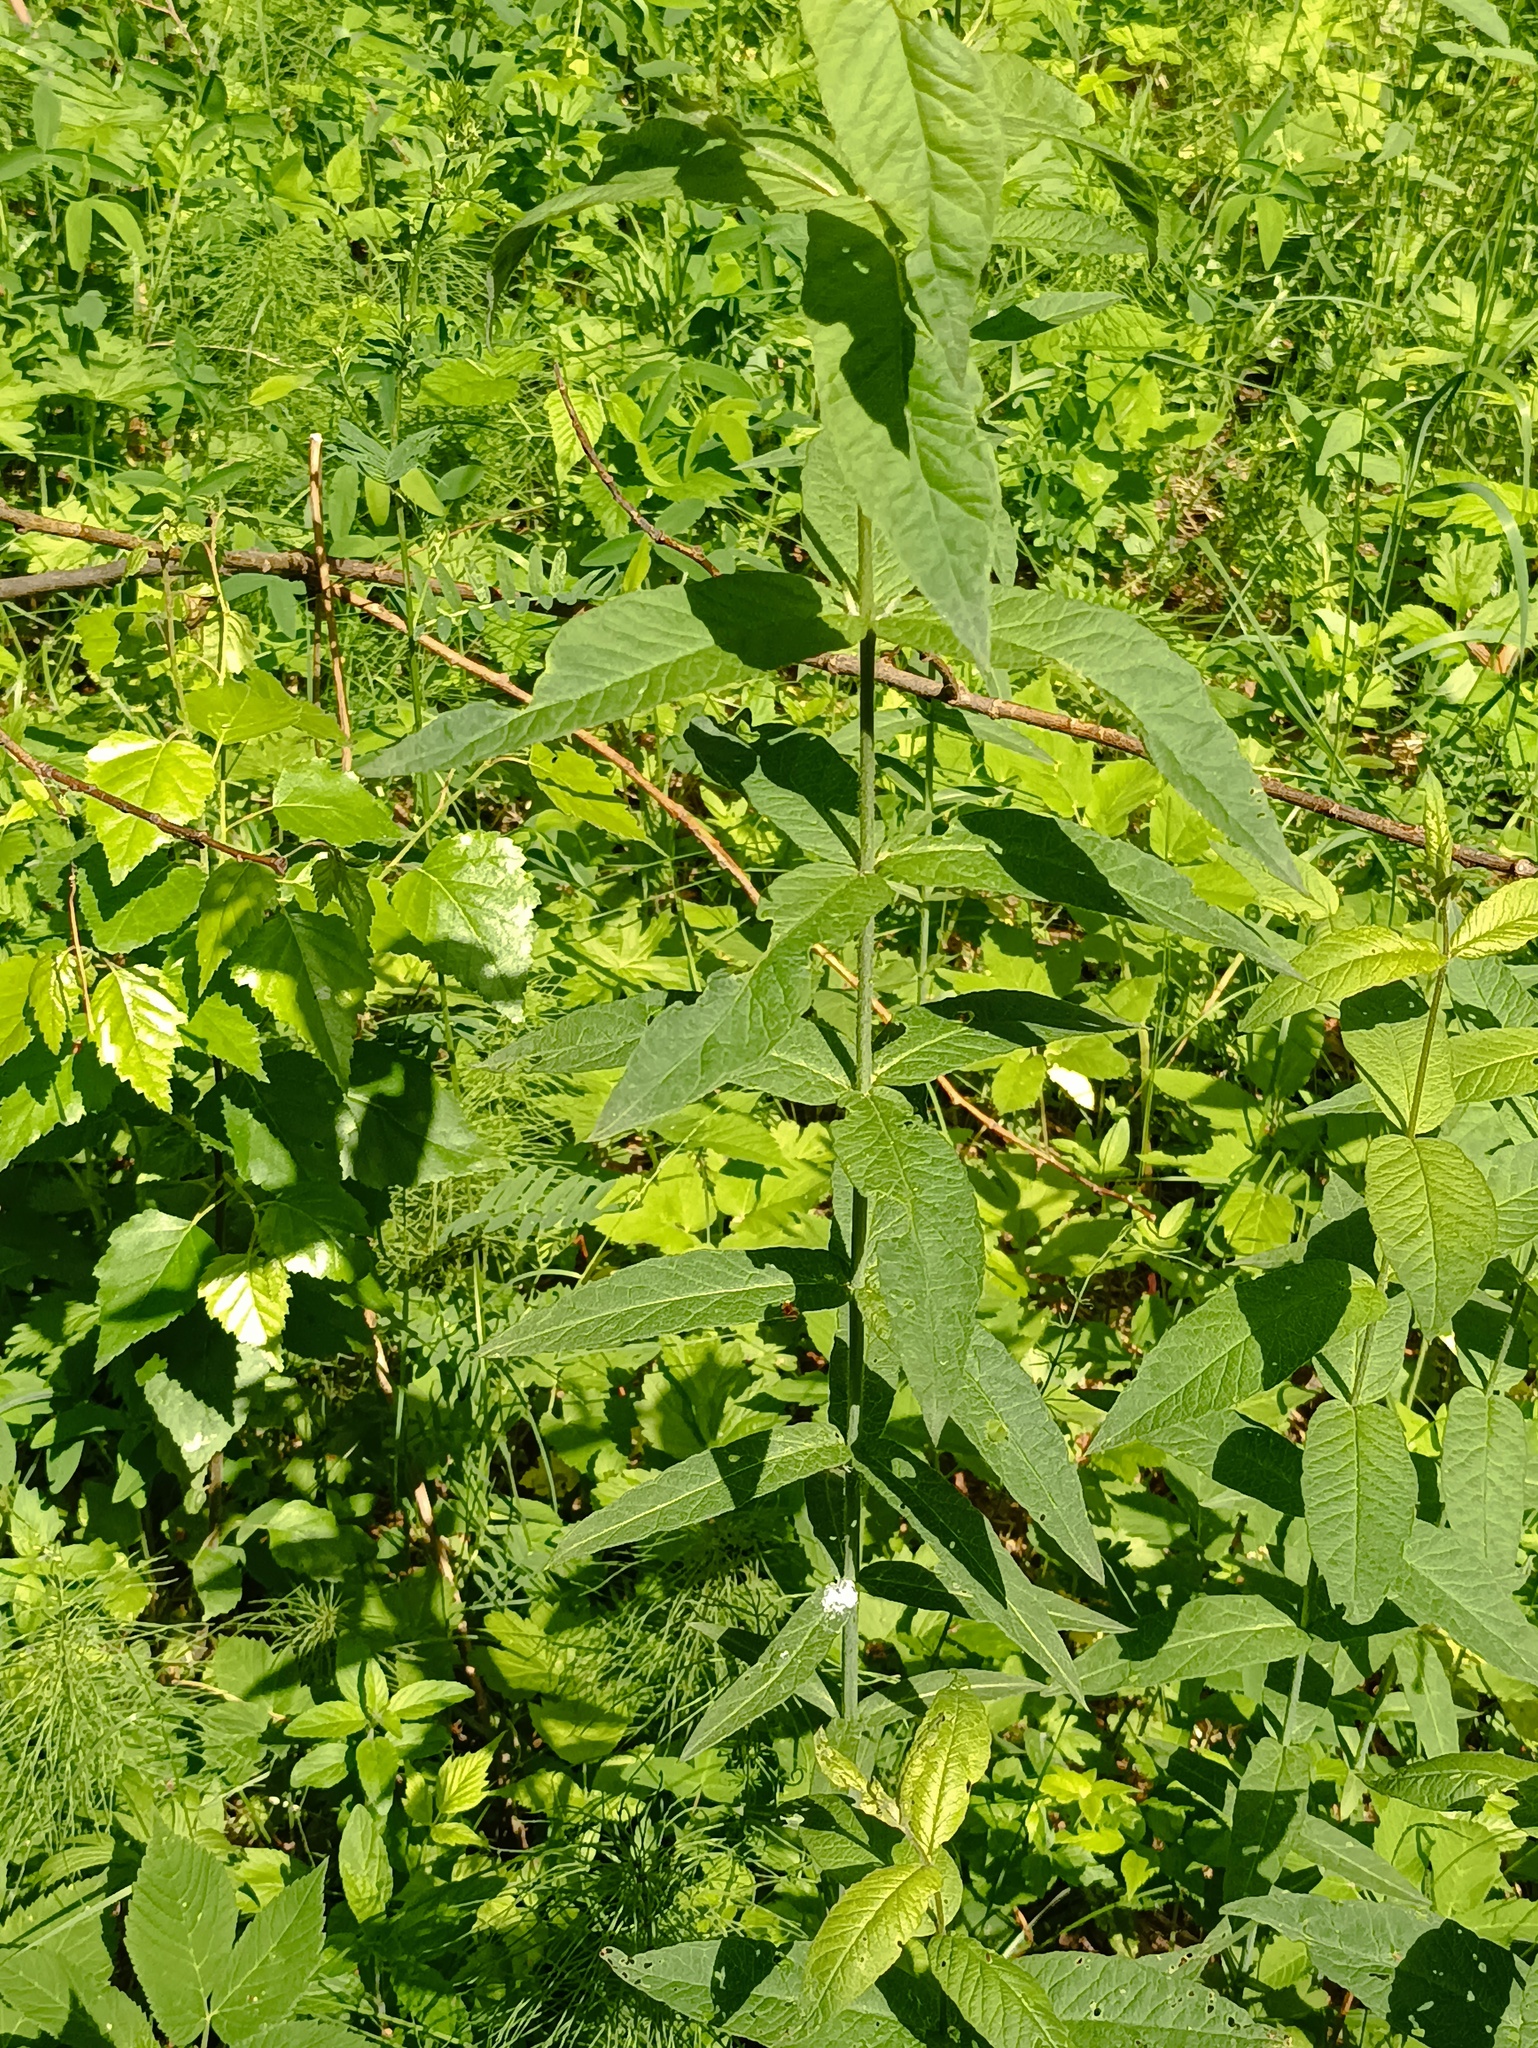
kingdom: Plantae
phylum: Tracheophyta
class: Magnoliopsida
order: Ericales
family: Primulaceae
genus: Lysimachia
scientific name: Lysimachia vulgaris
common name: Yellow loosestrife
